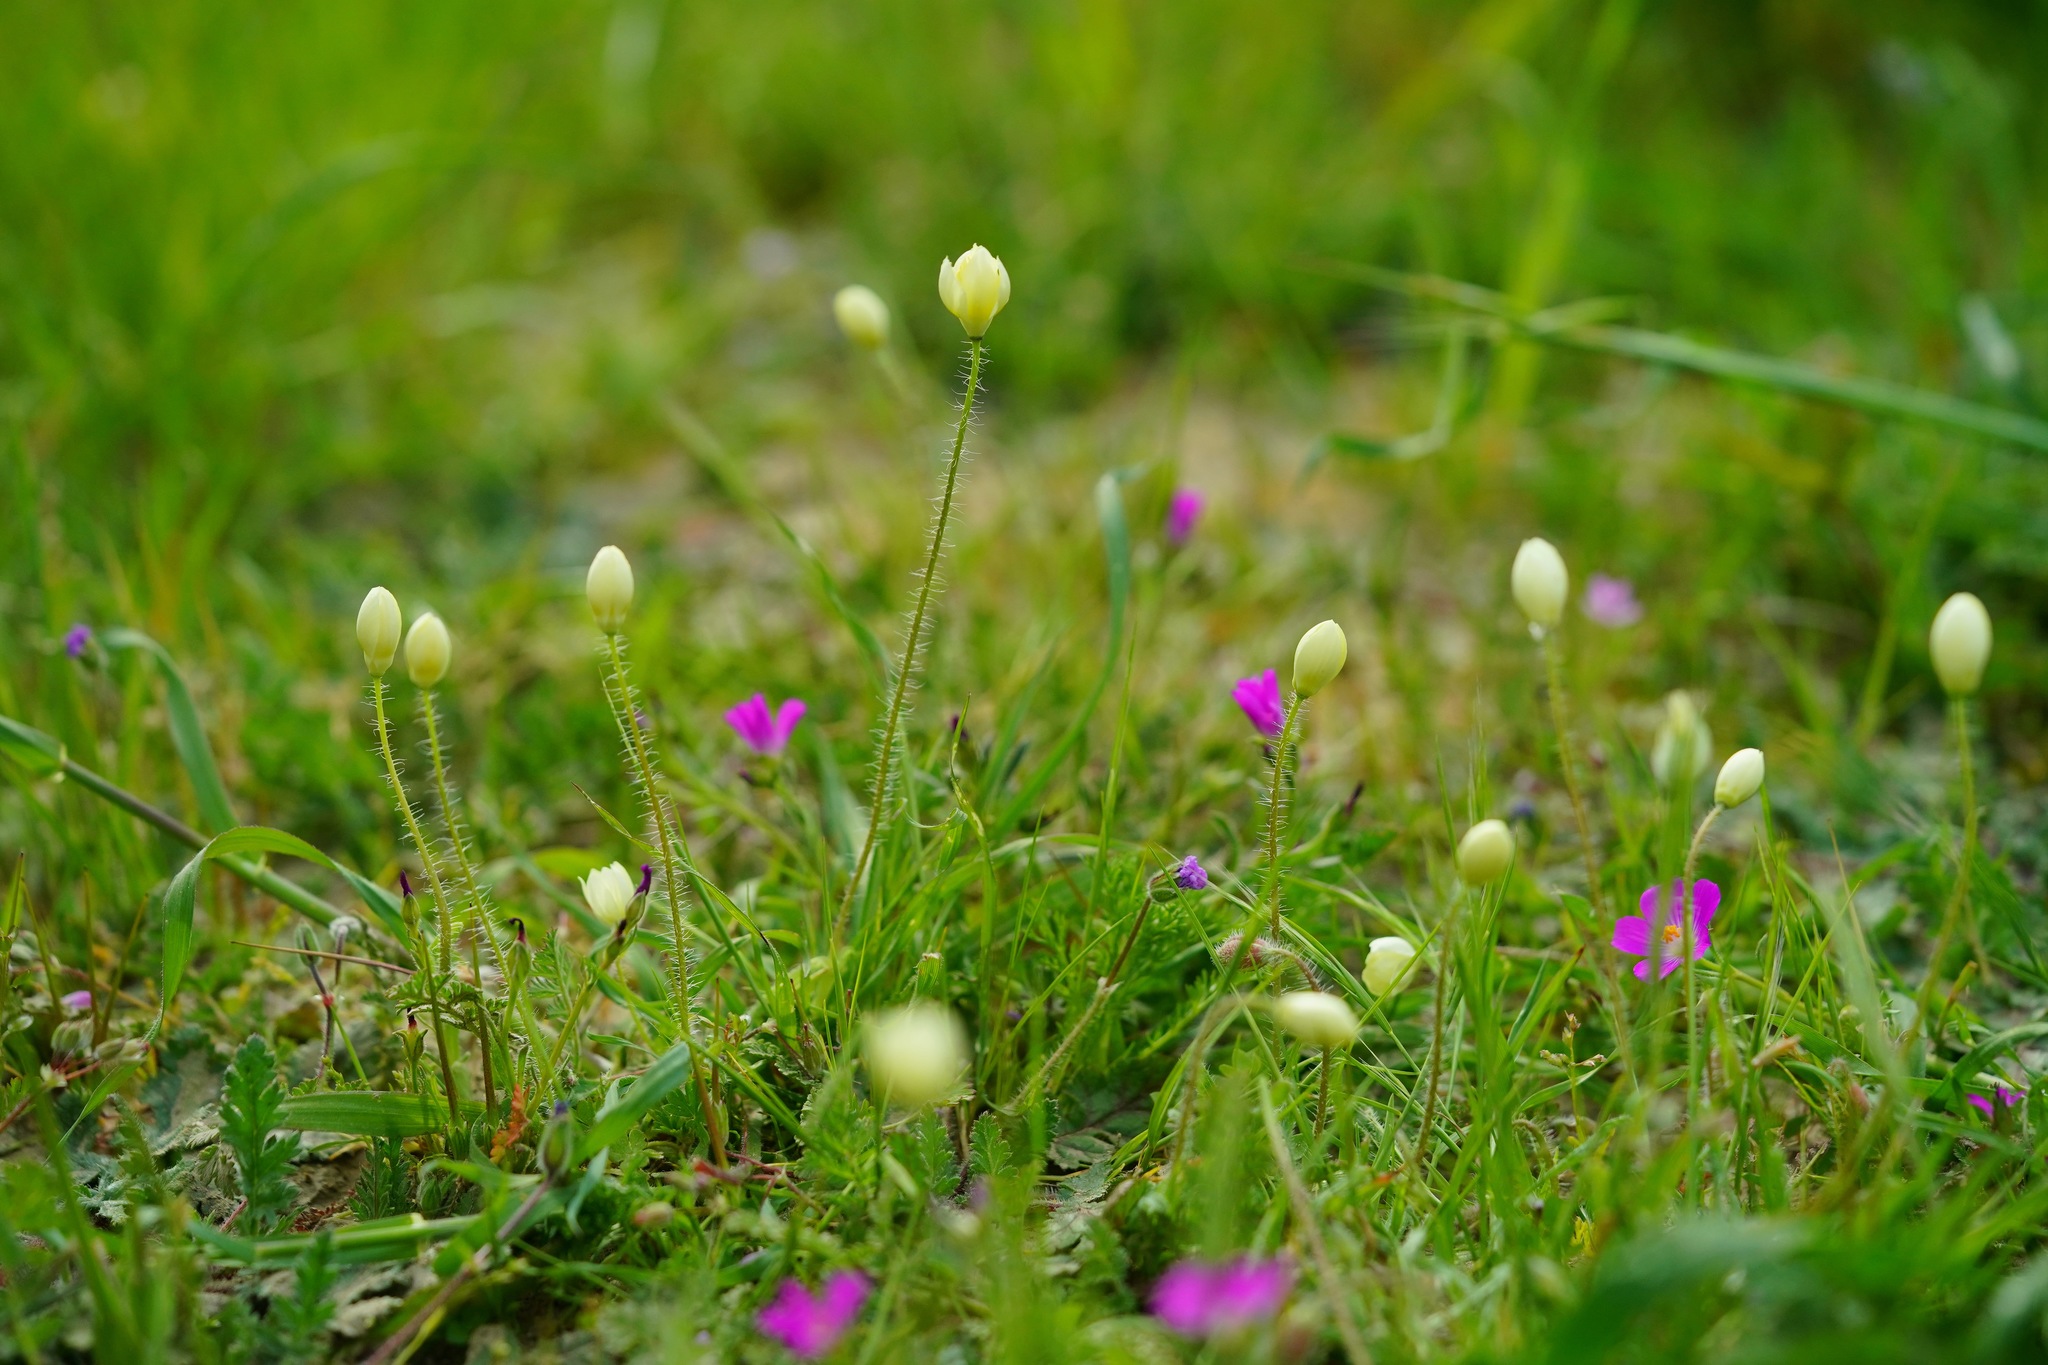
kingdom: Plantae
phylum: Tracheophyta
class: Magnoliopsida
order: Ranunculales
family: Papaveraceae
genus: Platystemon
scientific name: Platystemon californicus
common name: Cream-cups
